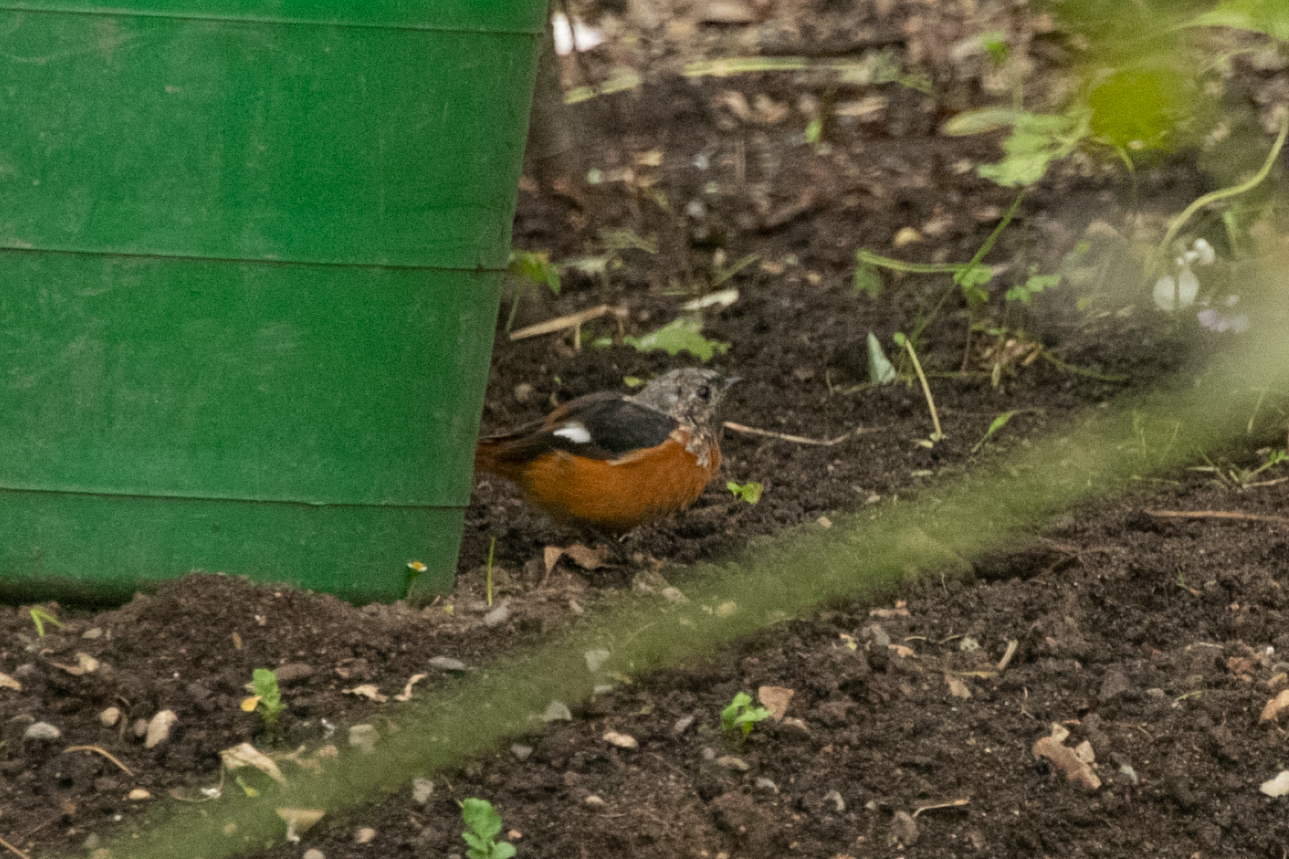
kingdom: Animalia
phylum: Chordata
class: Aves
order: Passeriformes
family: Muscicapidae
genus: Phoenicurus
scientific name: Phoenicurus auroreus
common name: Daurian redstart
